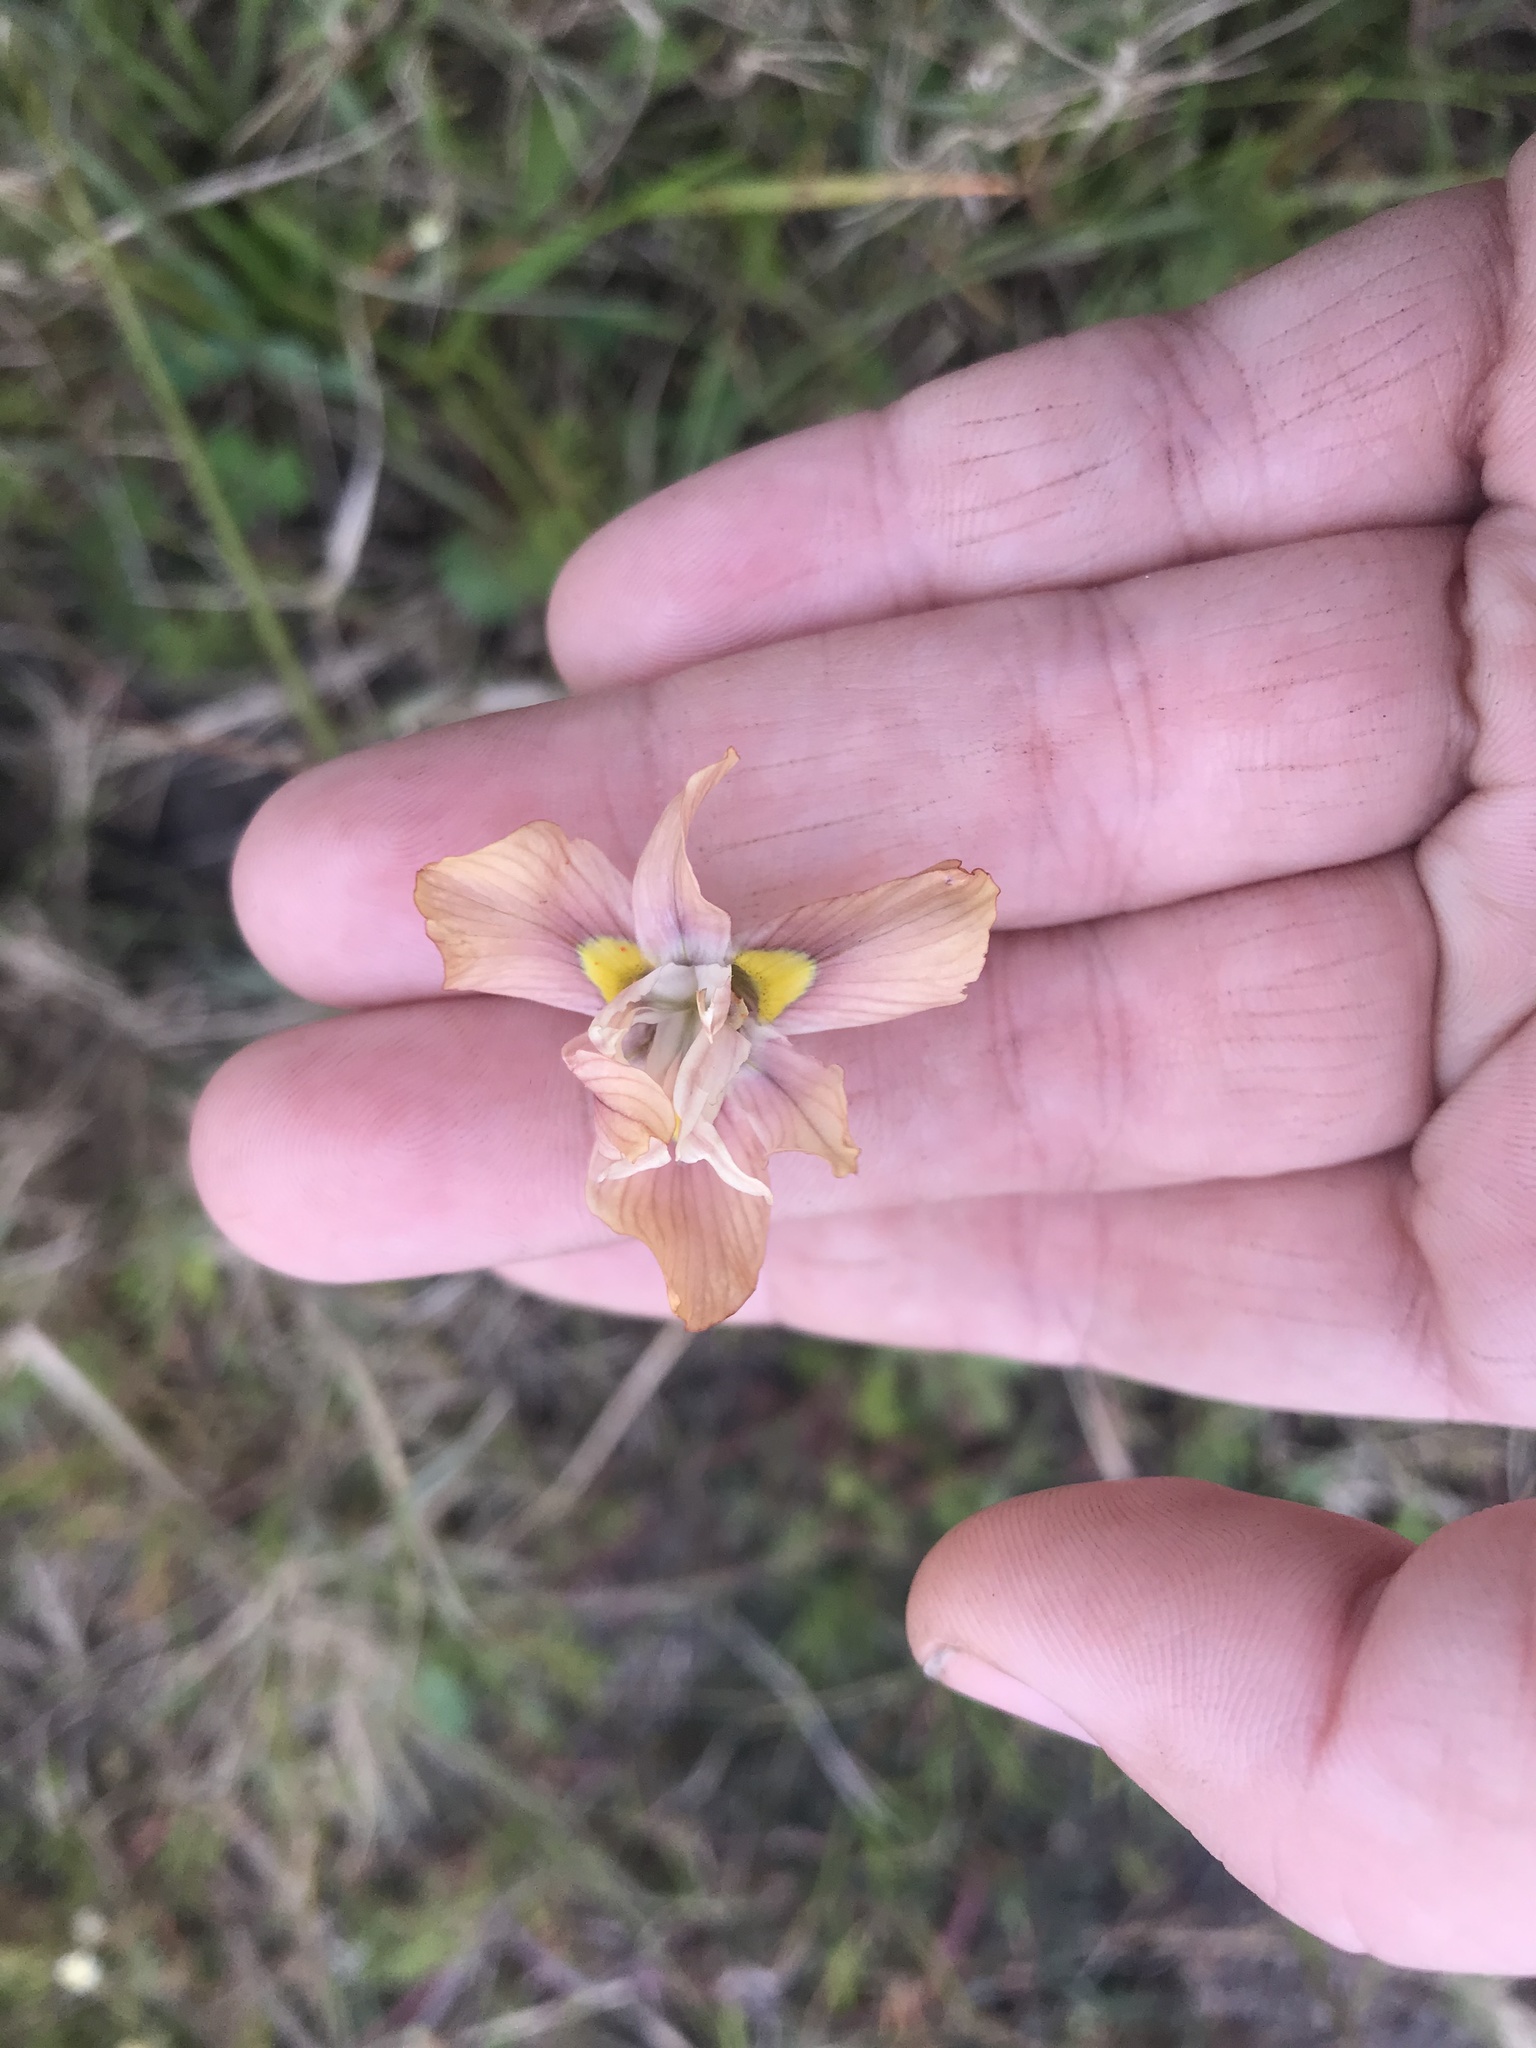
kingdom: Plantae
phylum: Tracheophyta
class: Liliopsida
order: Asparagales
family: Iridaceae
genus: Moraea
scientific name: Moraea gawleri
